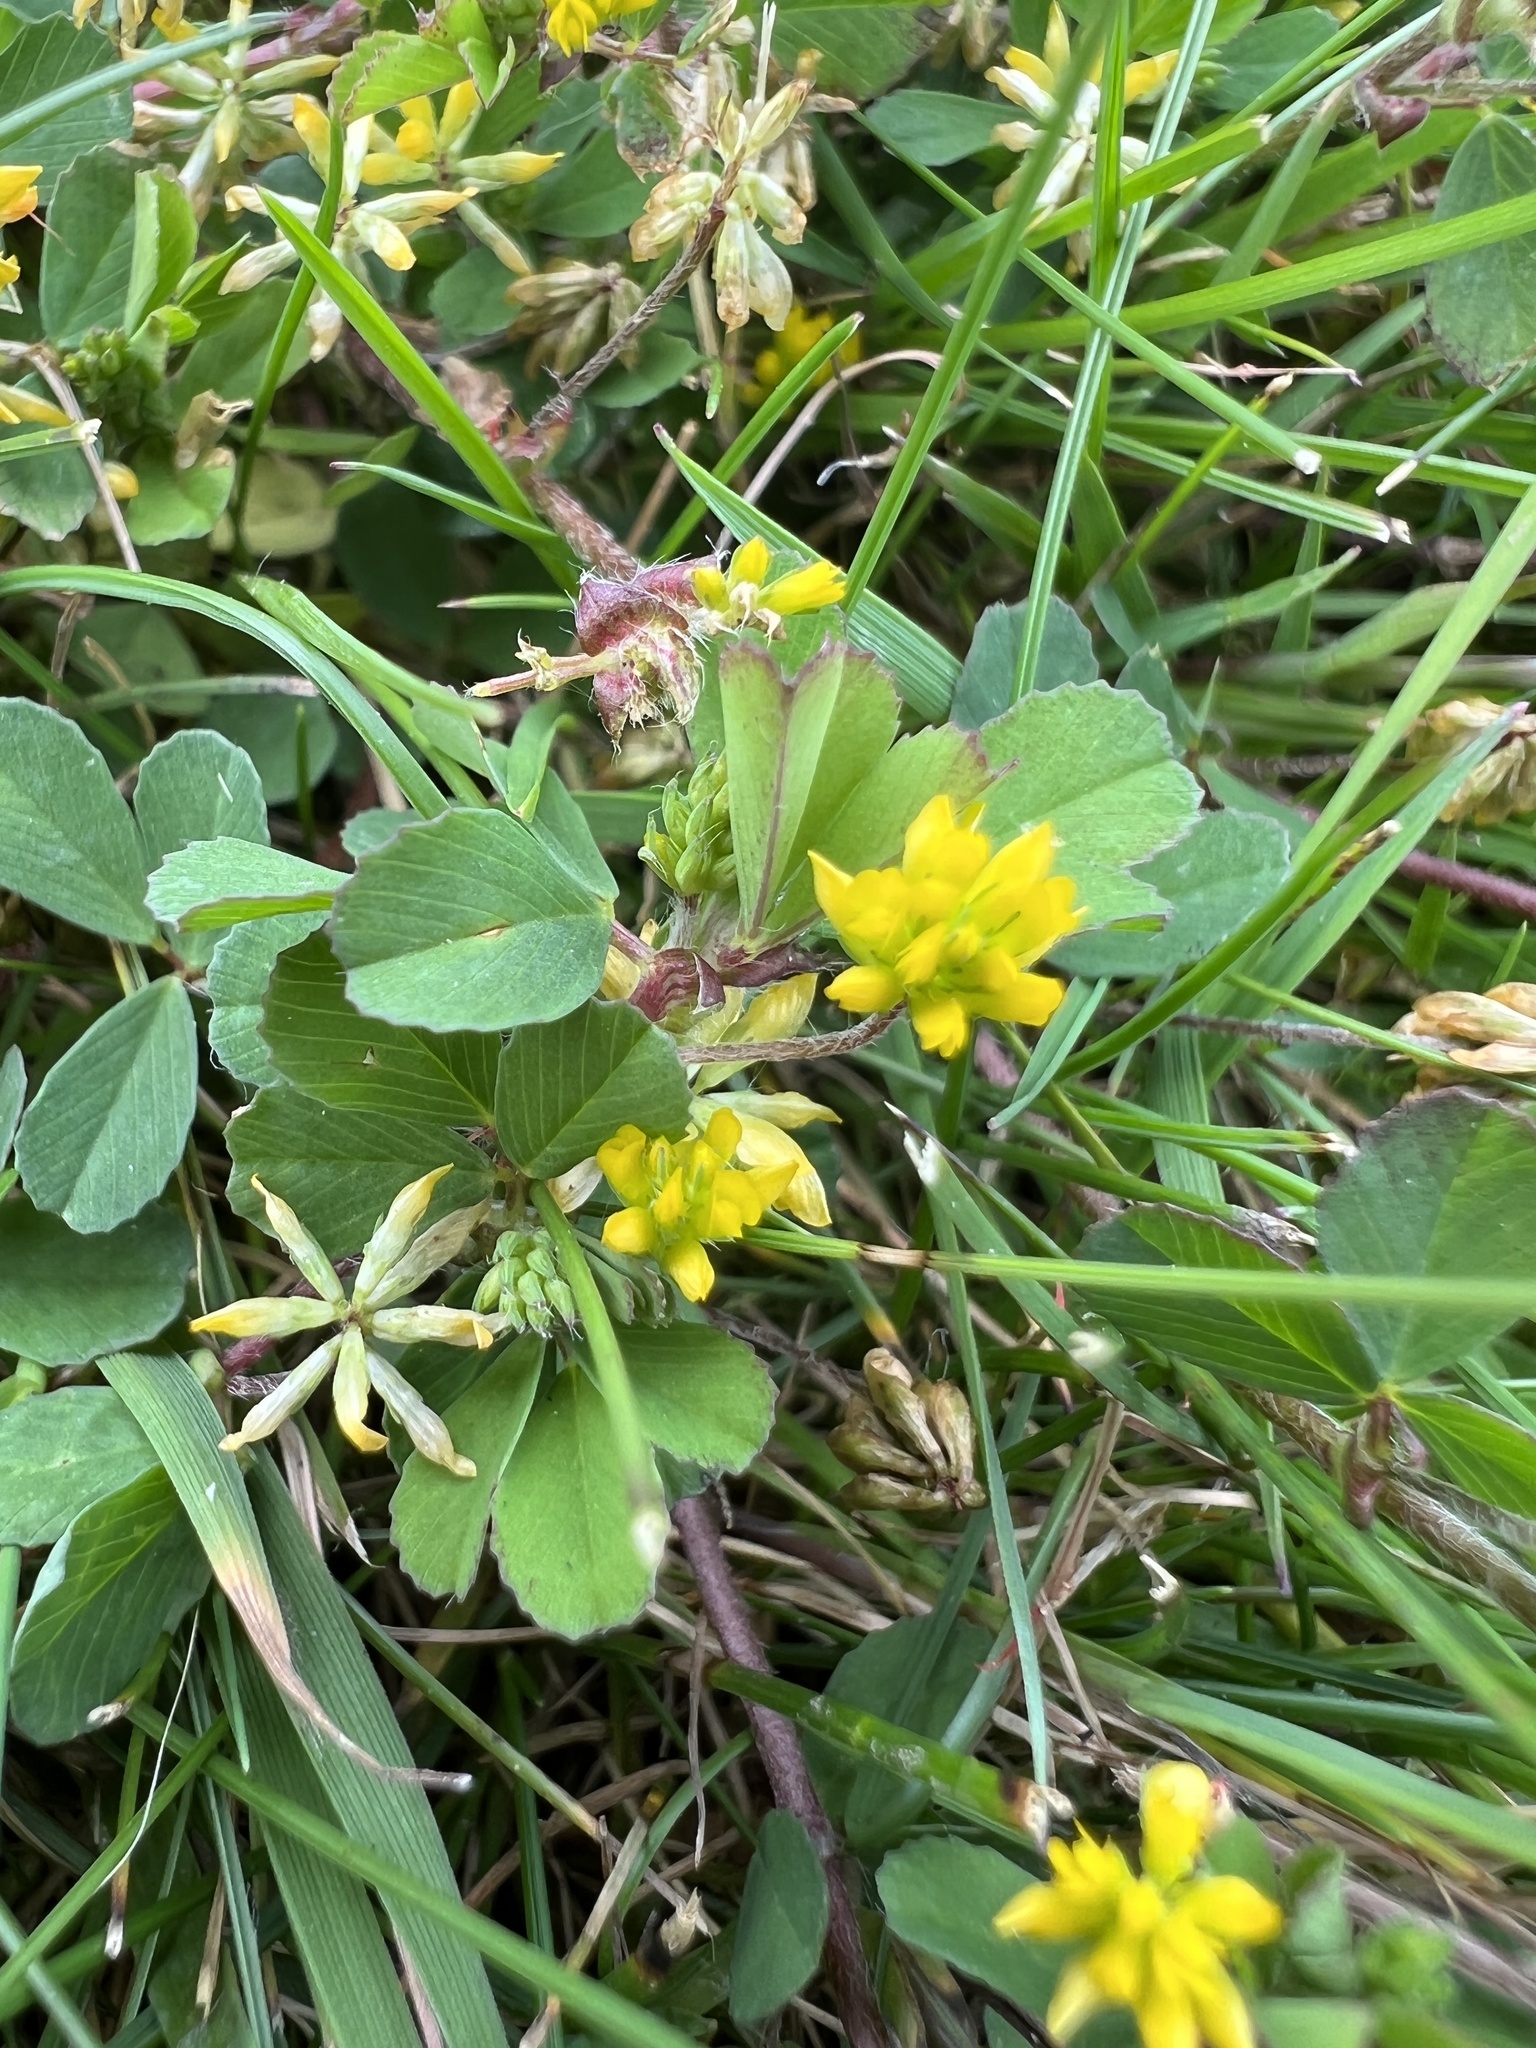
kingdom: Plantae
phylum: Tracheophyta
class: Magnoliopsida
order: Fabales
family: Fabaceae
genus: Trifolium
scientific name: Trifolium dubium
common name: Suckling clover
